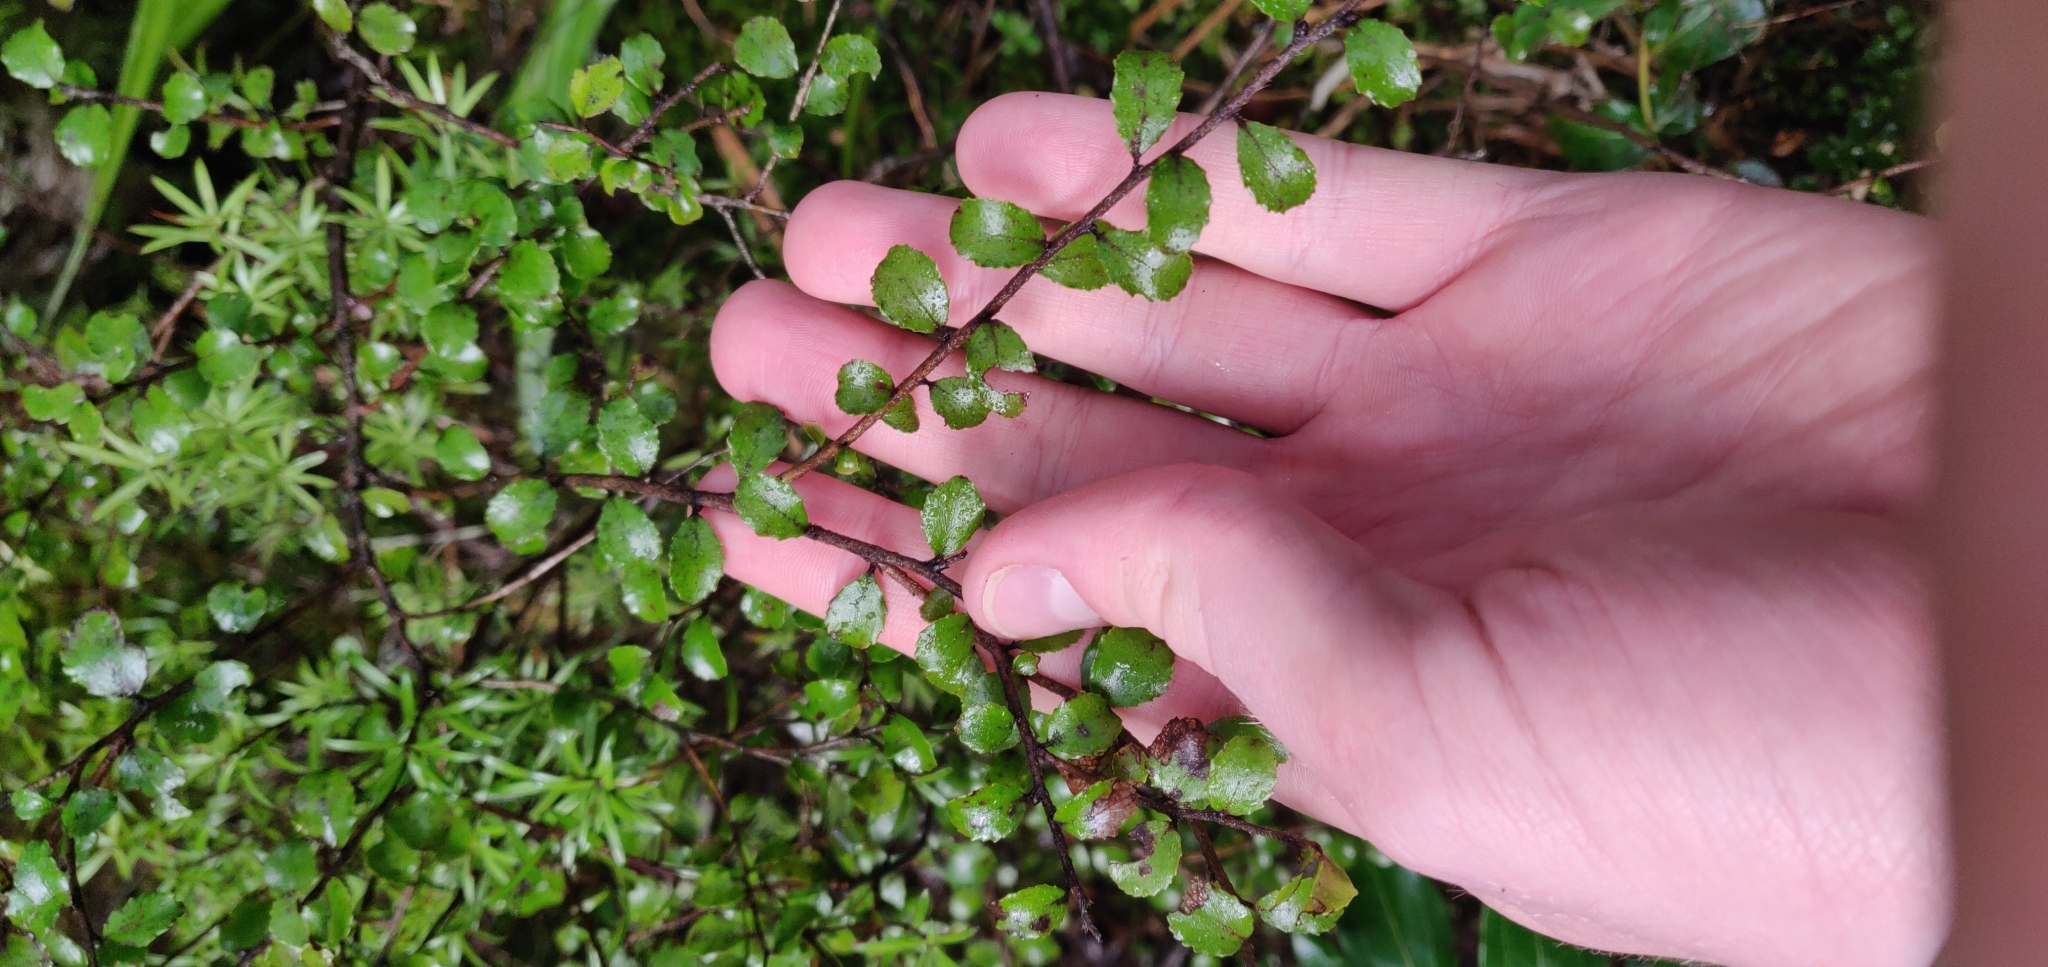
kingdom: Plantae
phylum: Tracheophyta
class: Magnoliopsida
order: Ericales
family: Ericaceae
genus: Gaultheria
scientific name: Gaultheria antipoda
